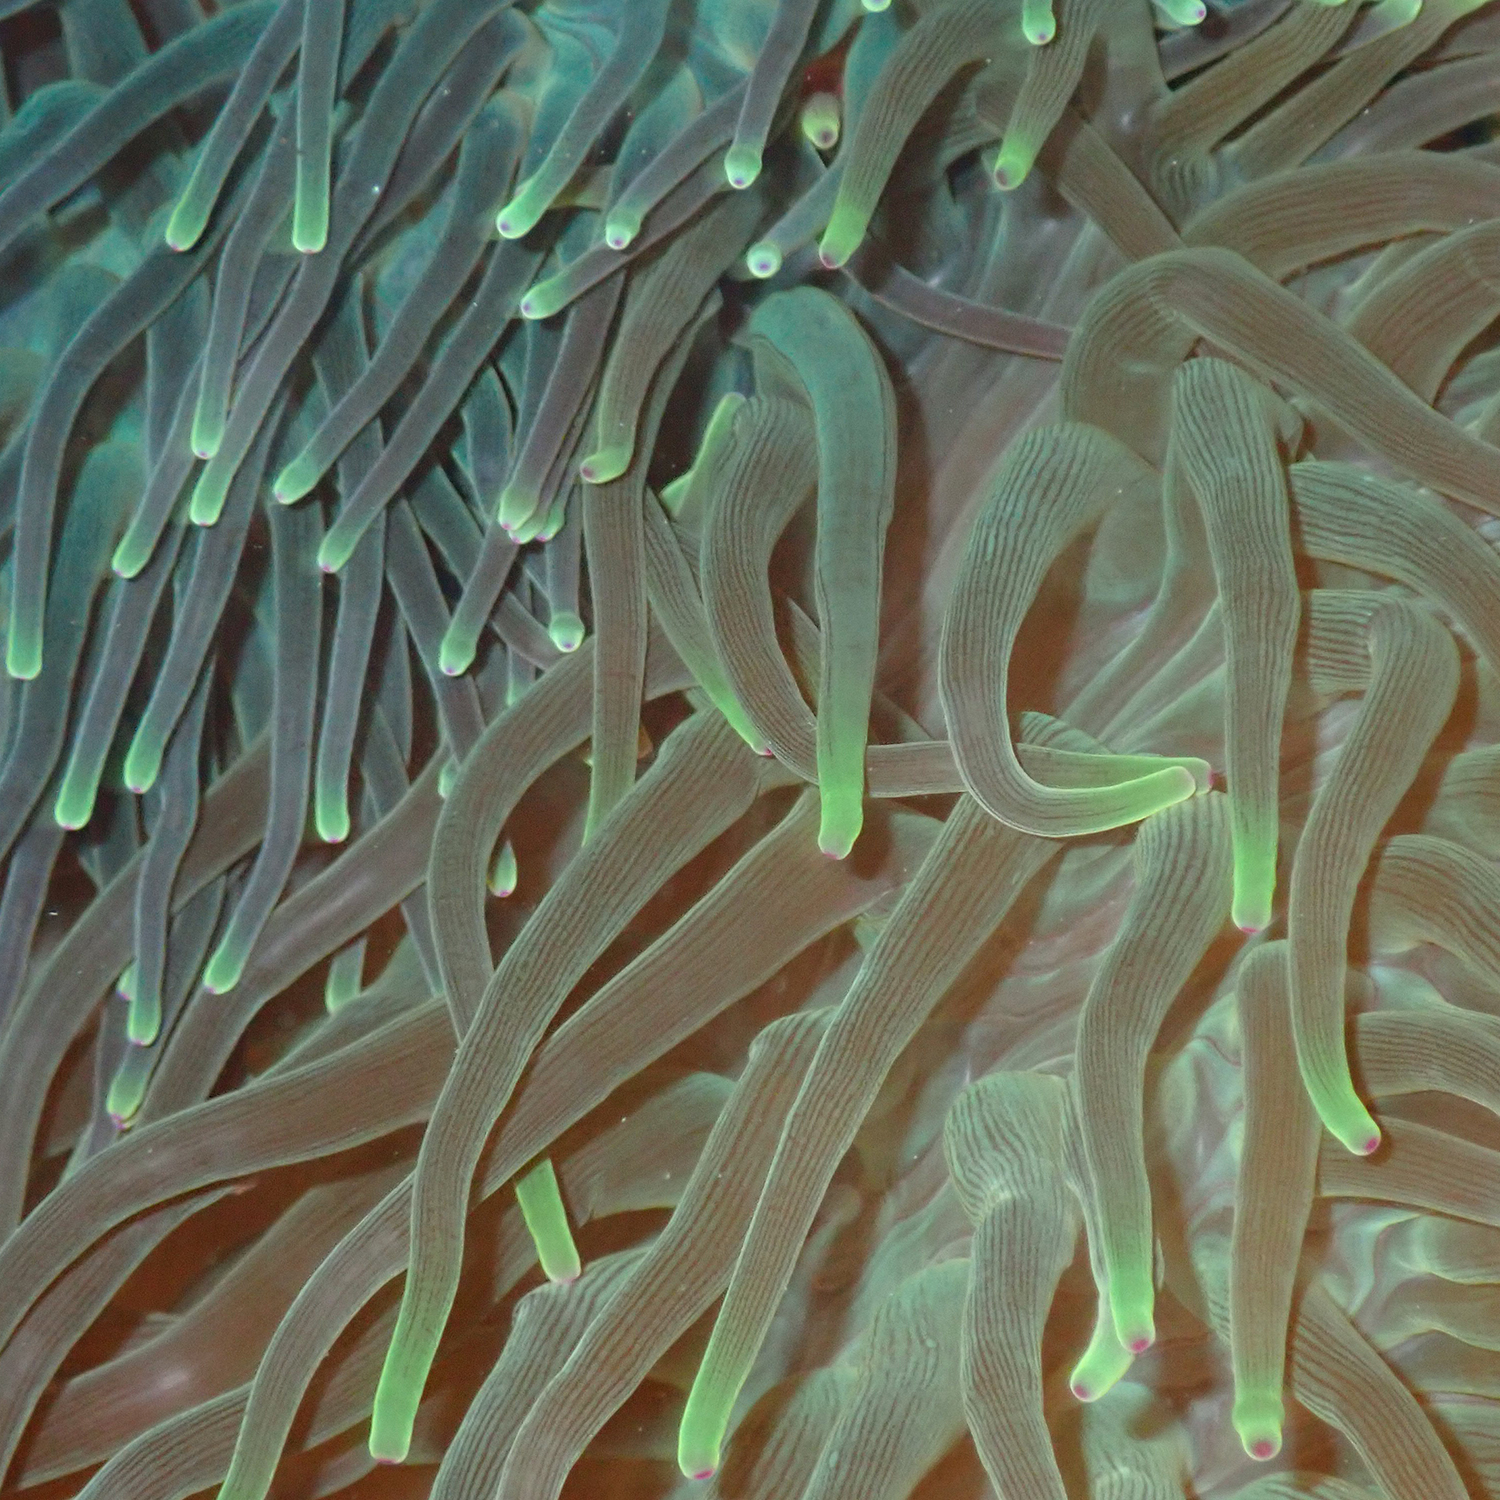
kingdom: Animalia
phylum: Cnidaria
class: Anthozoa
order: Actiniaria
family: Actiniidae
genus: Entacmaea
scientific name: Entacmaea quadricolor
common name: Bulb tentacle sea anemone
